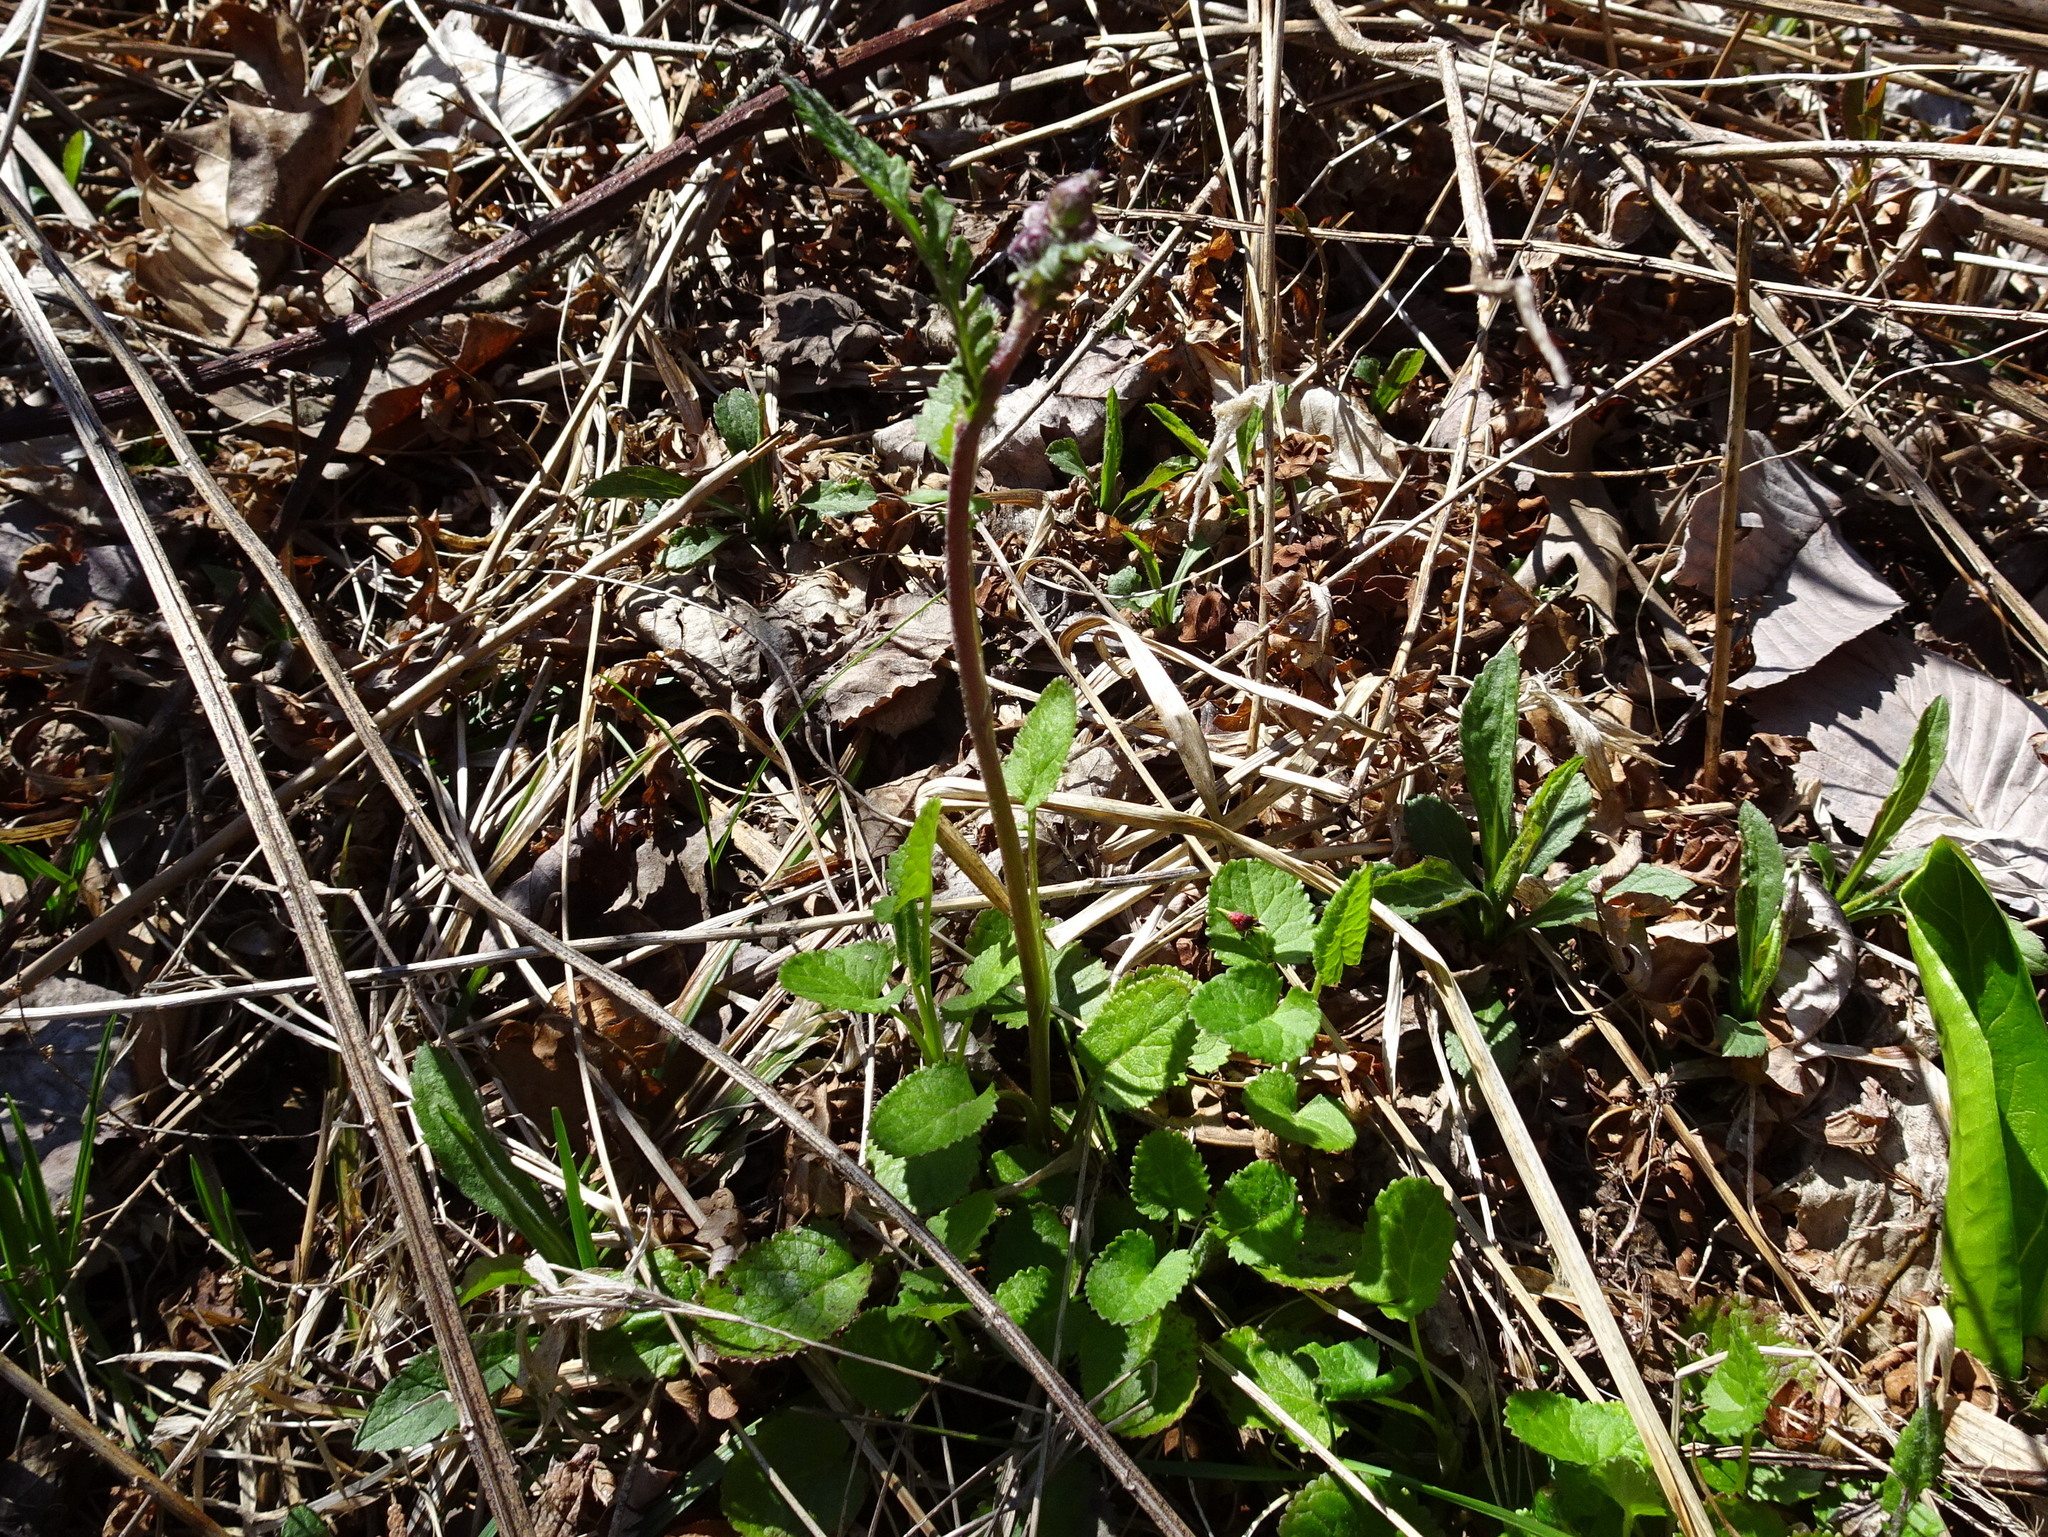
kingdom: Plantae
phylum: Tracheophyta
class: Magnoliopsida
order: Asterales
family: Asteraceae
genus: Packera
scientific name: Packera aurea
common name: Golden groundsel
